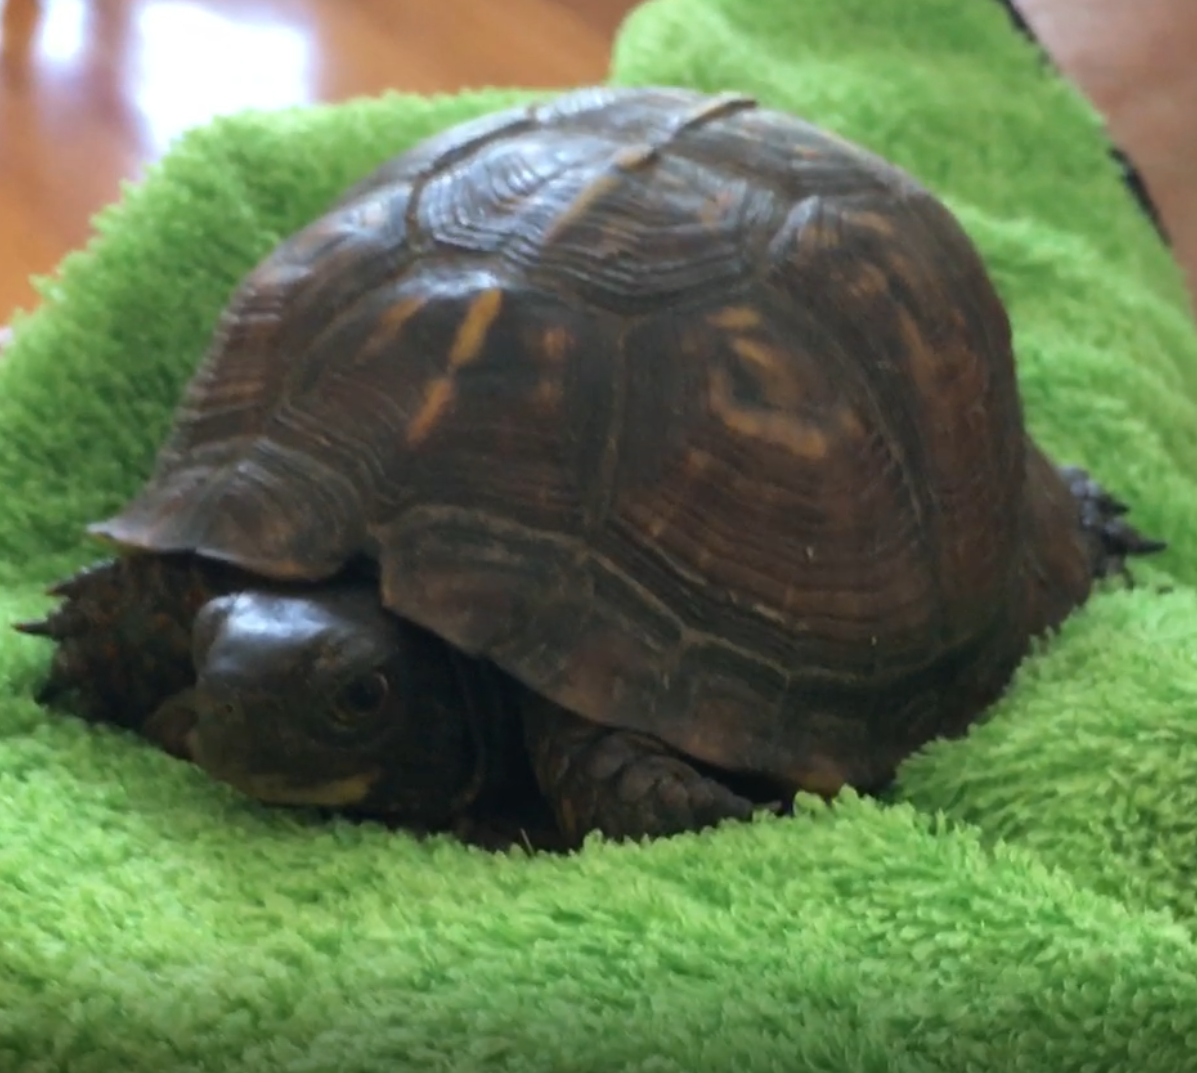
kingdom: Animalia
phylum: Chordata
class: Testudines
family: Emydidae
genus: Terrapene
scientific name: Terrapene carolina
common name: Common box turtle
